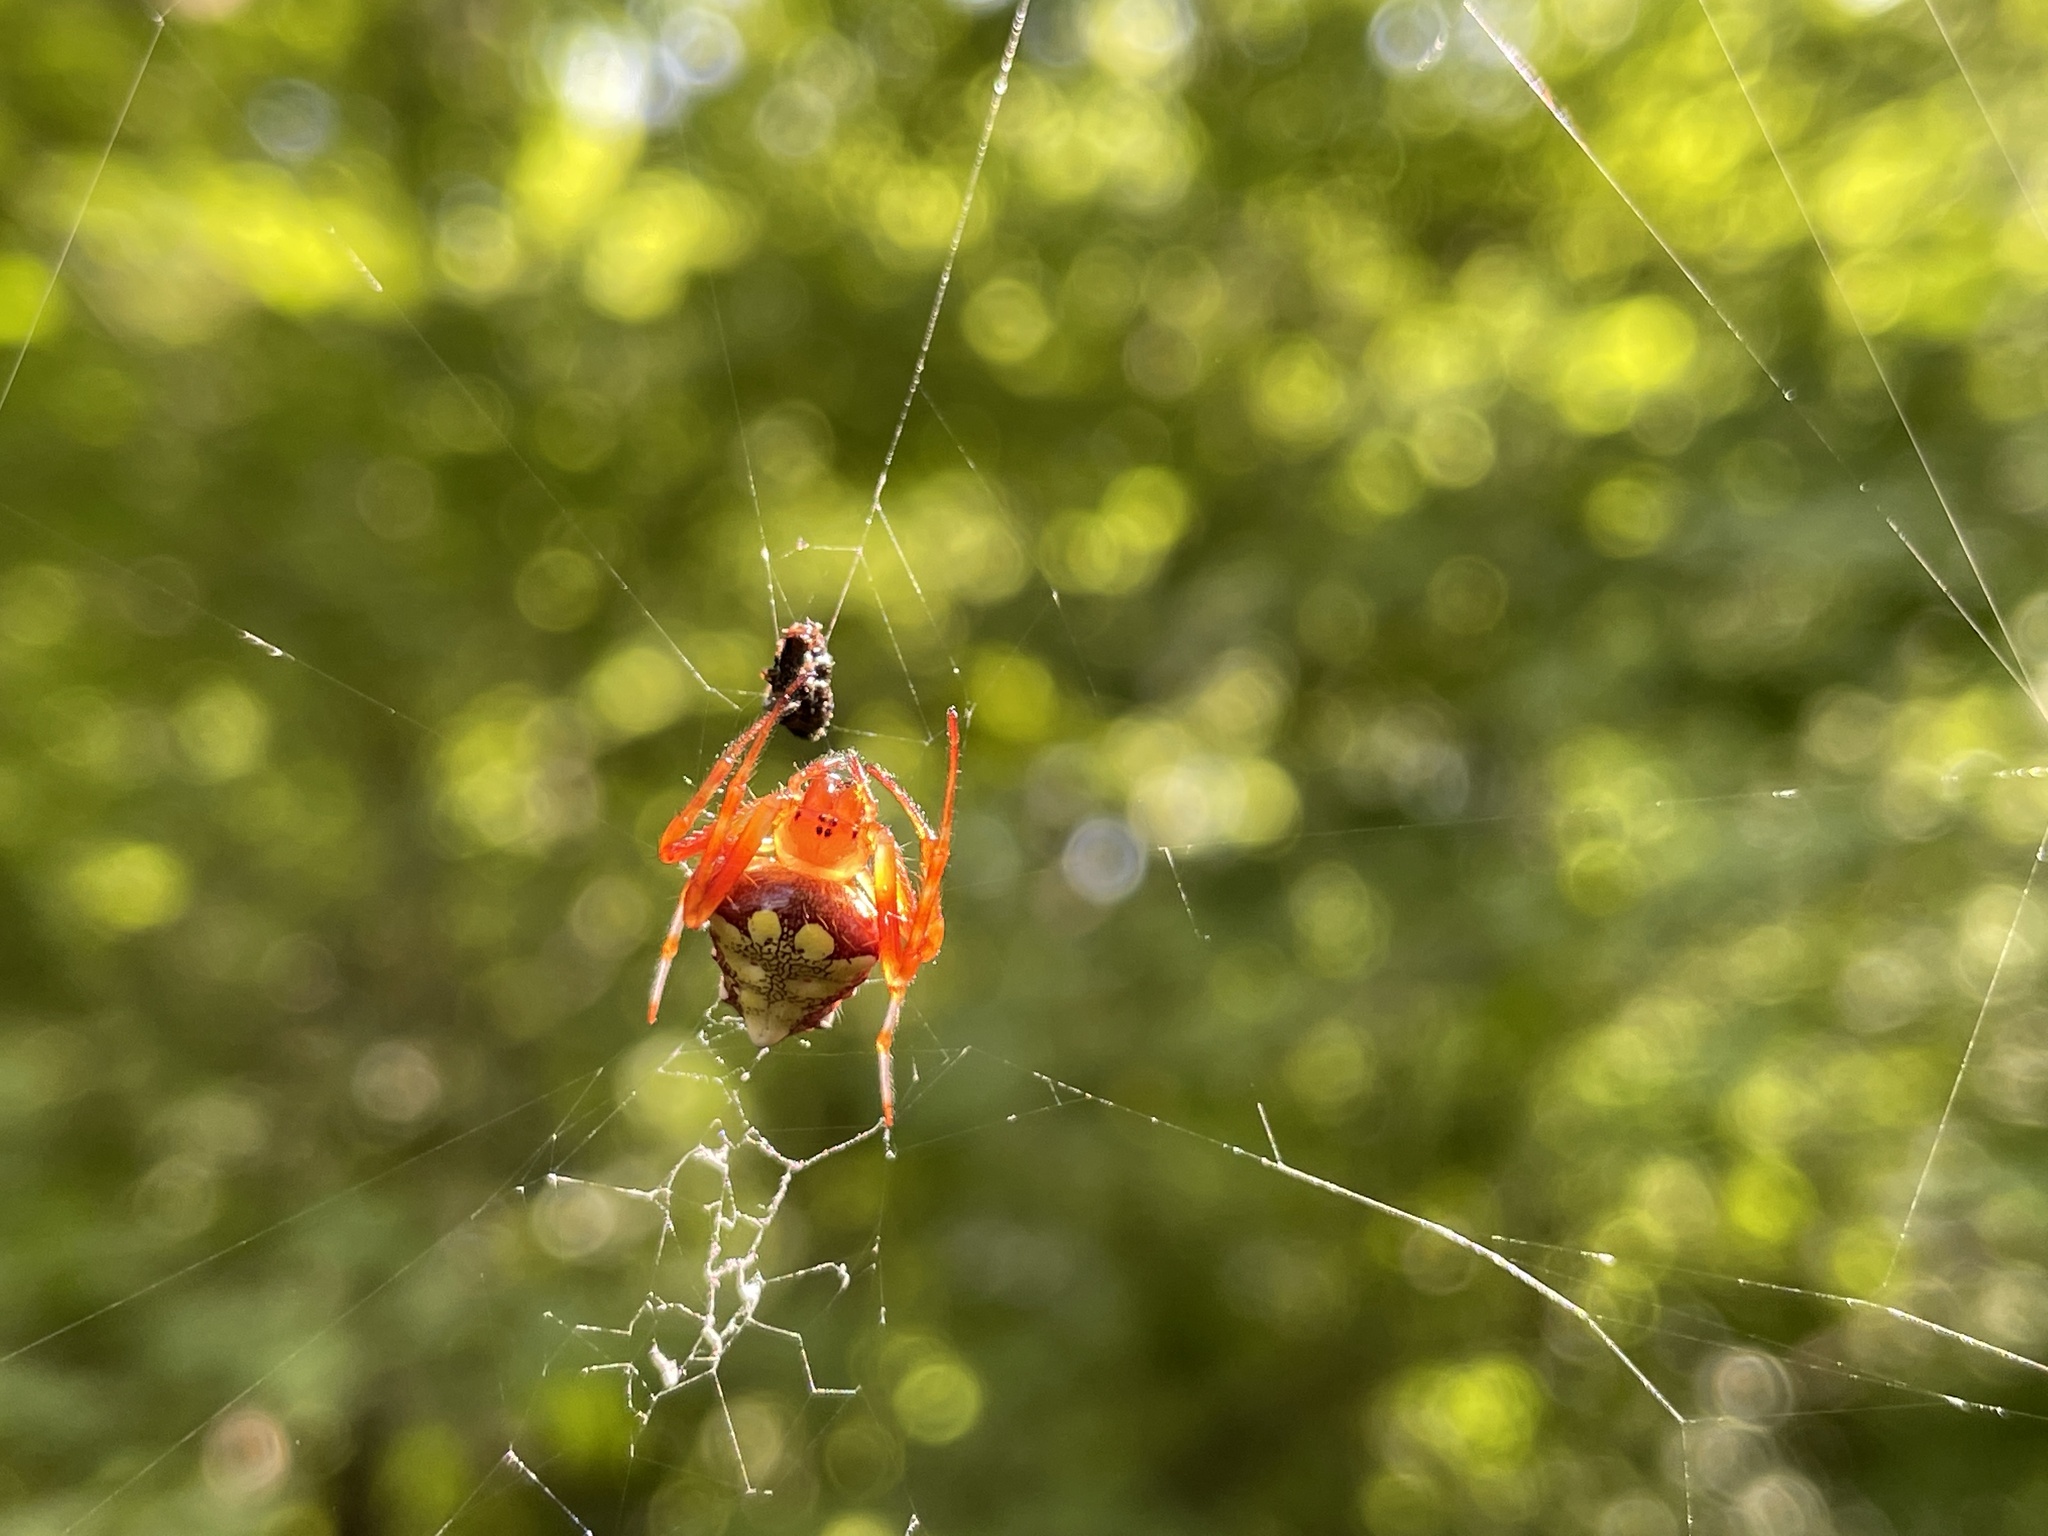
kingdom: Animalia
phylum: Arthropoda
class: Arachnida
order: Araneae
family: Araneidae
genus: Verrucosa
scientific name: Verrucosa arenata
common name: Orb weavers
